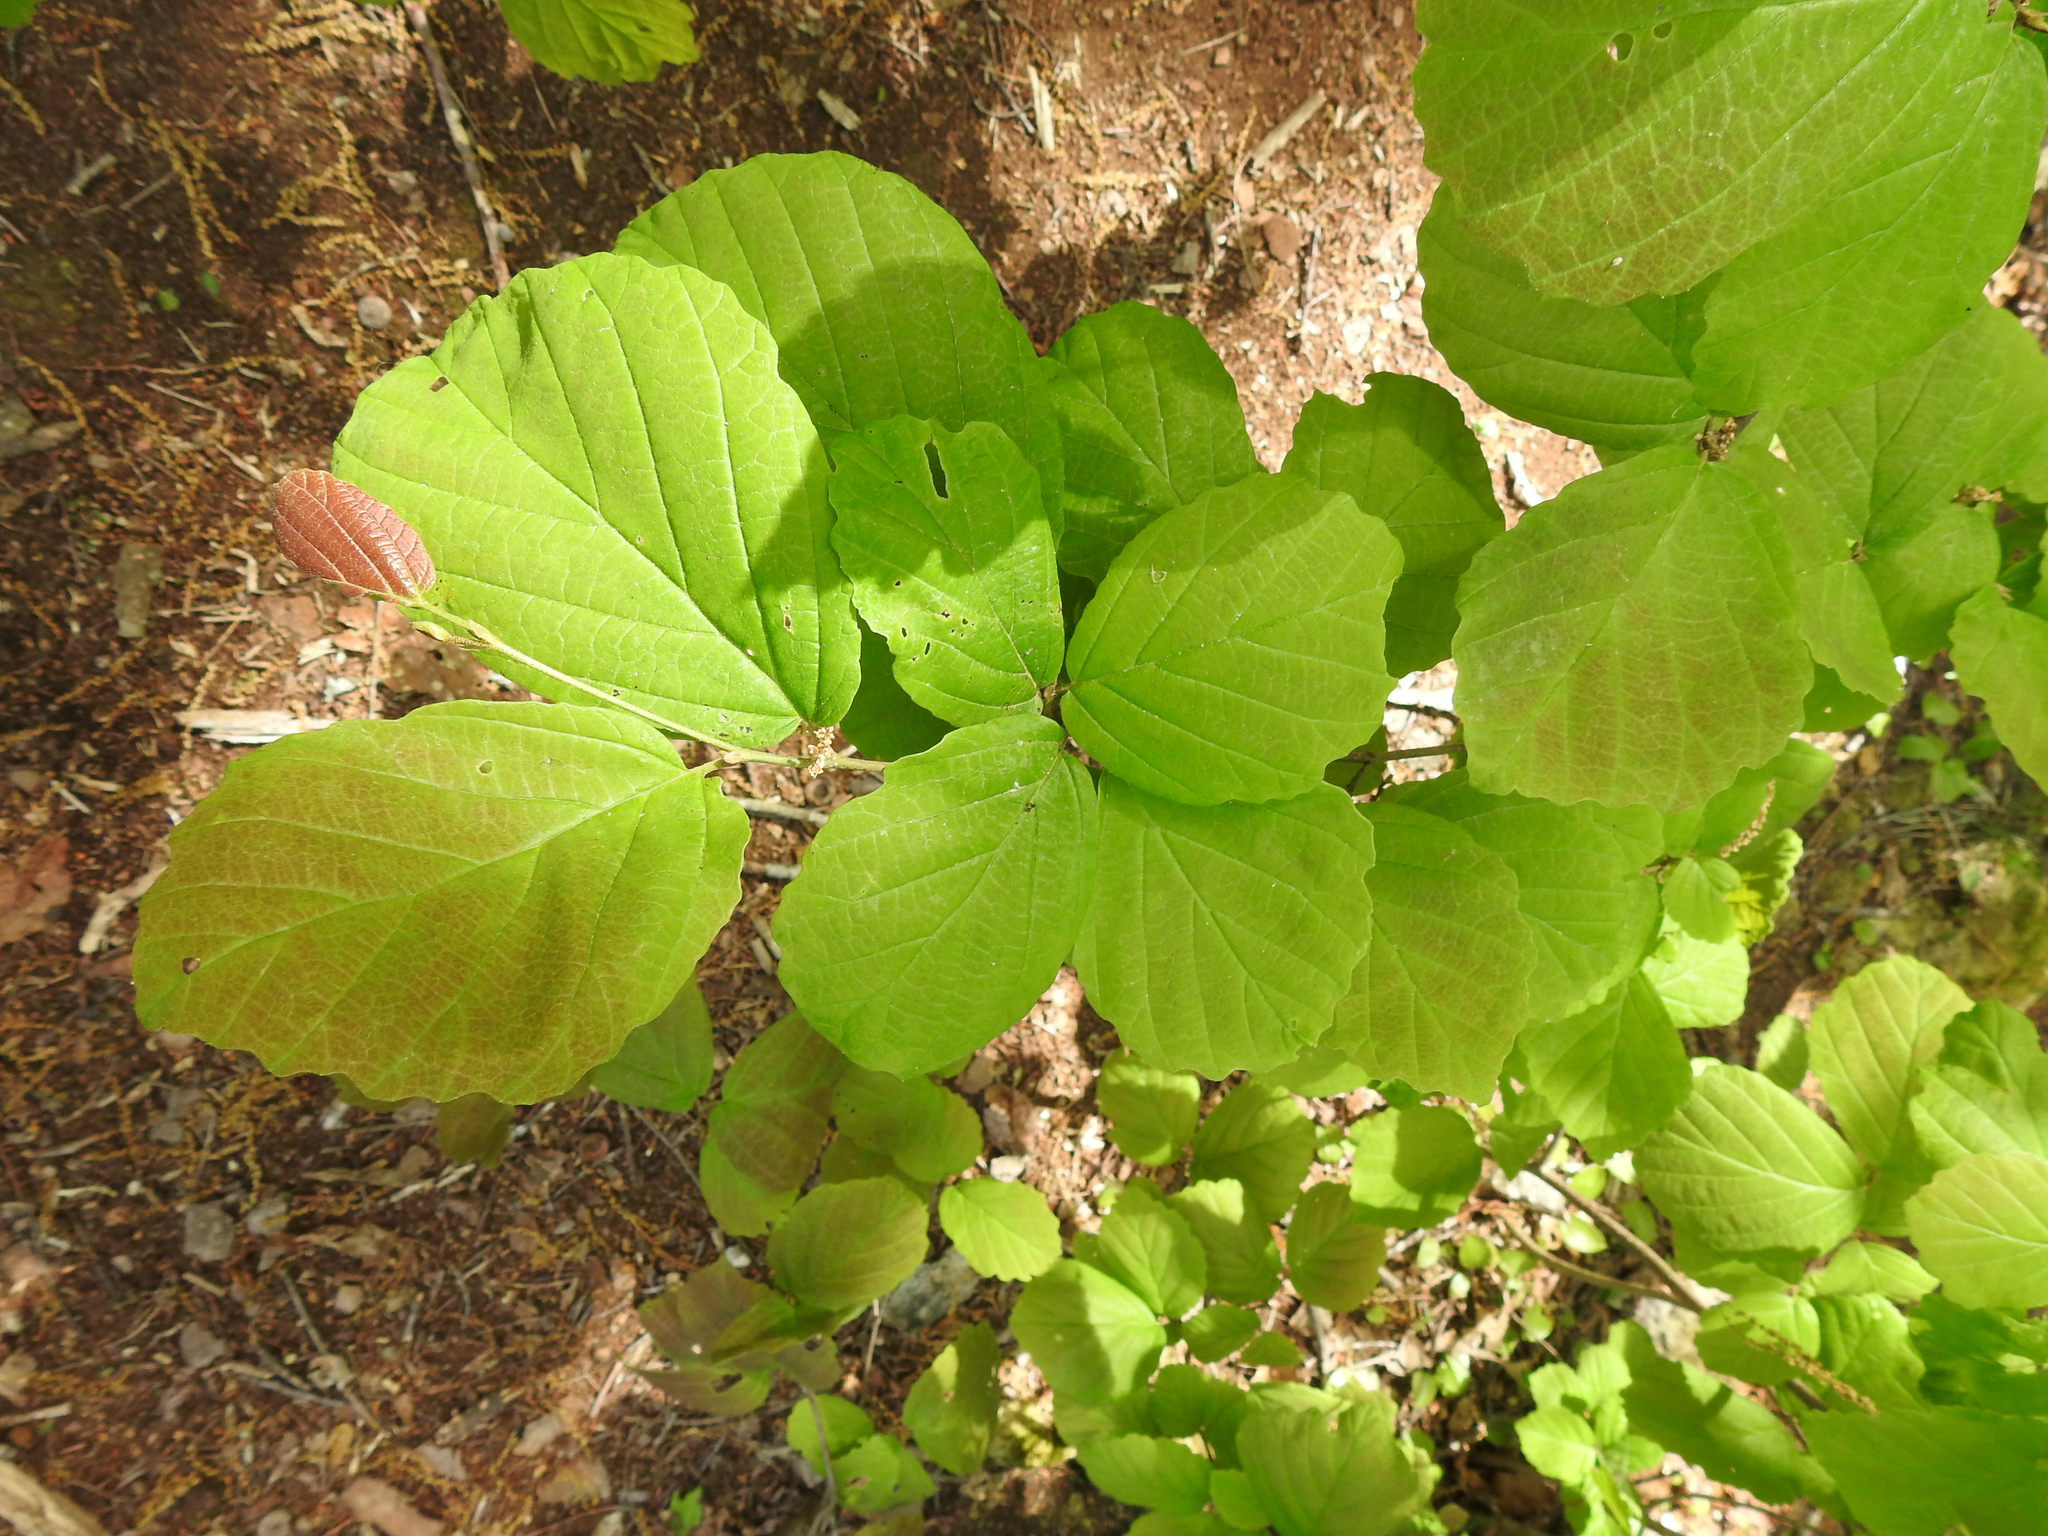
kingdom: Plantae
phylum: Tracheophyta
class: Magnoliopsida
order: Saxifragales
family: Hamamelidaceae
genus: Hamamelis
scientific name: Hamamelis virginiana
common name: Witch-hazel
